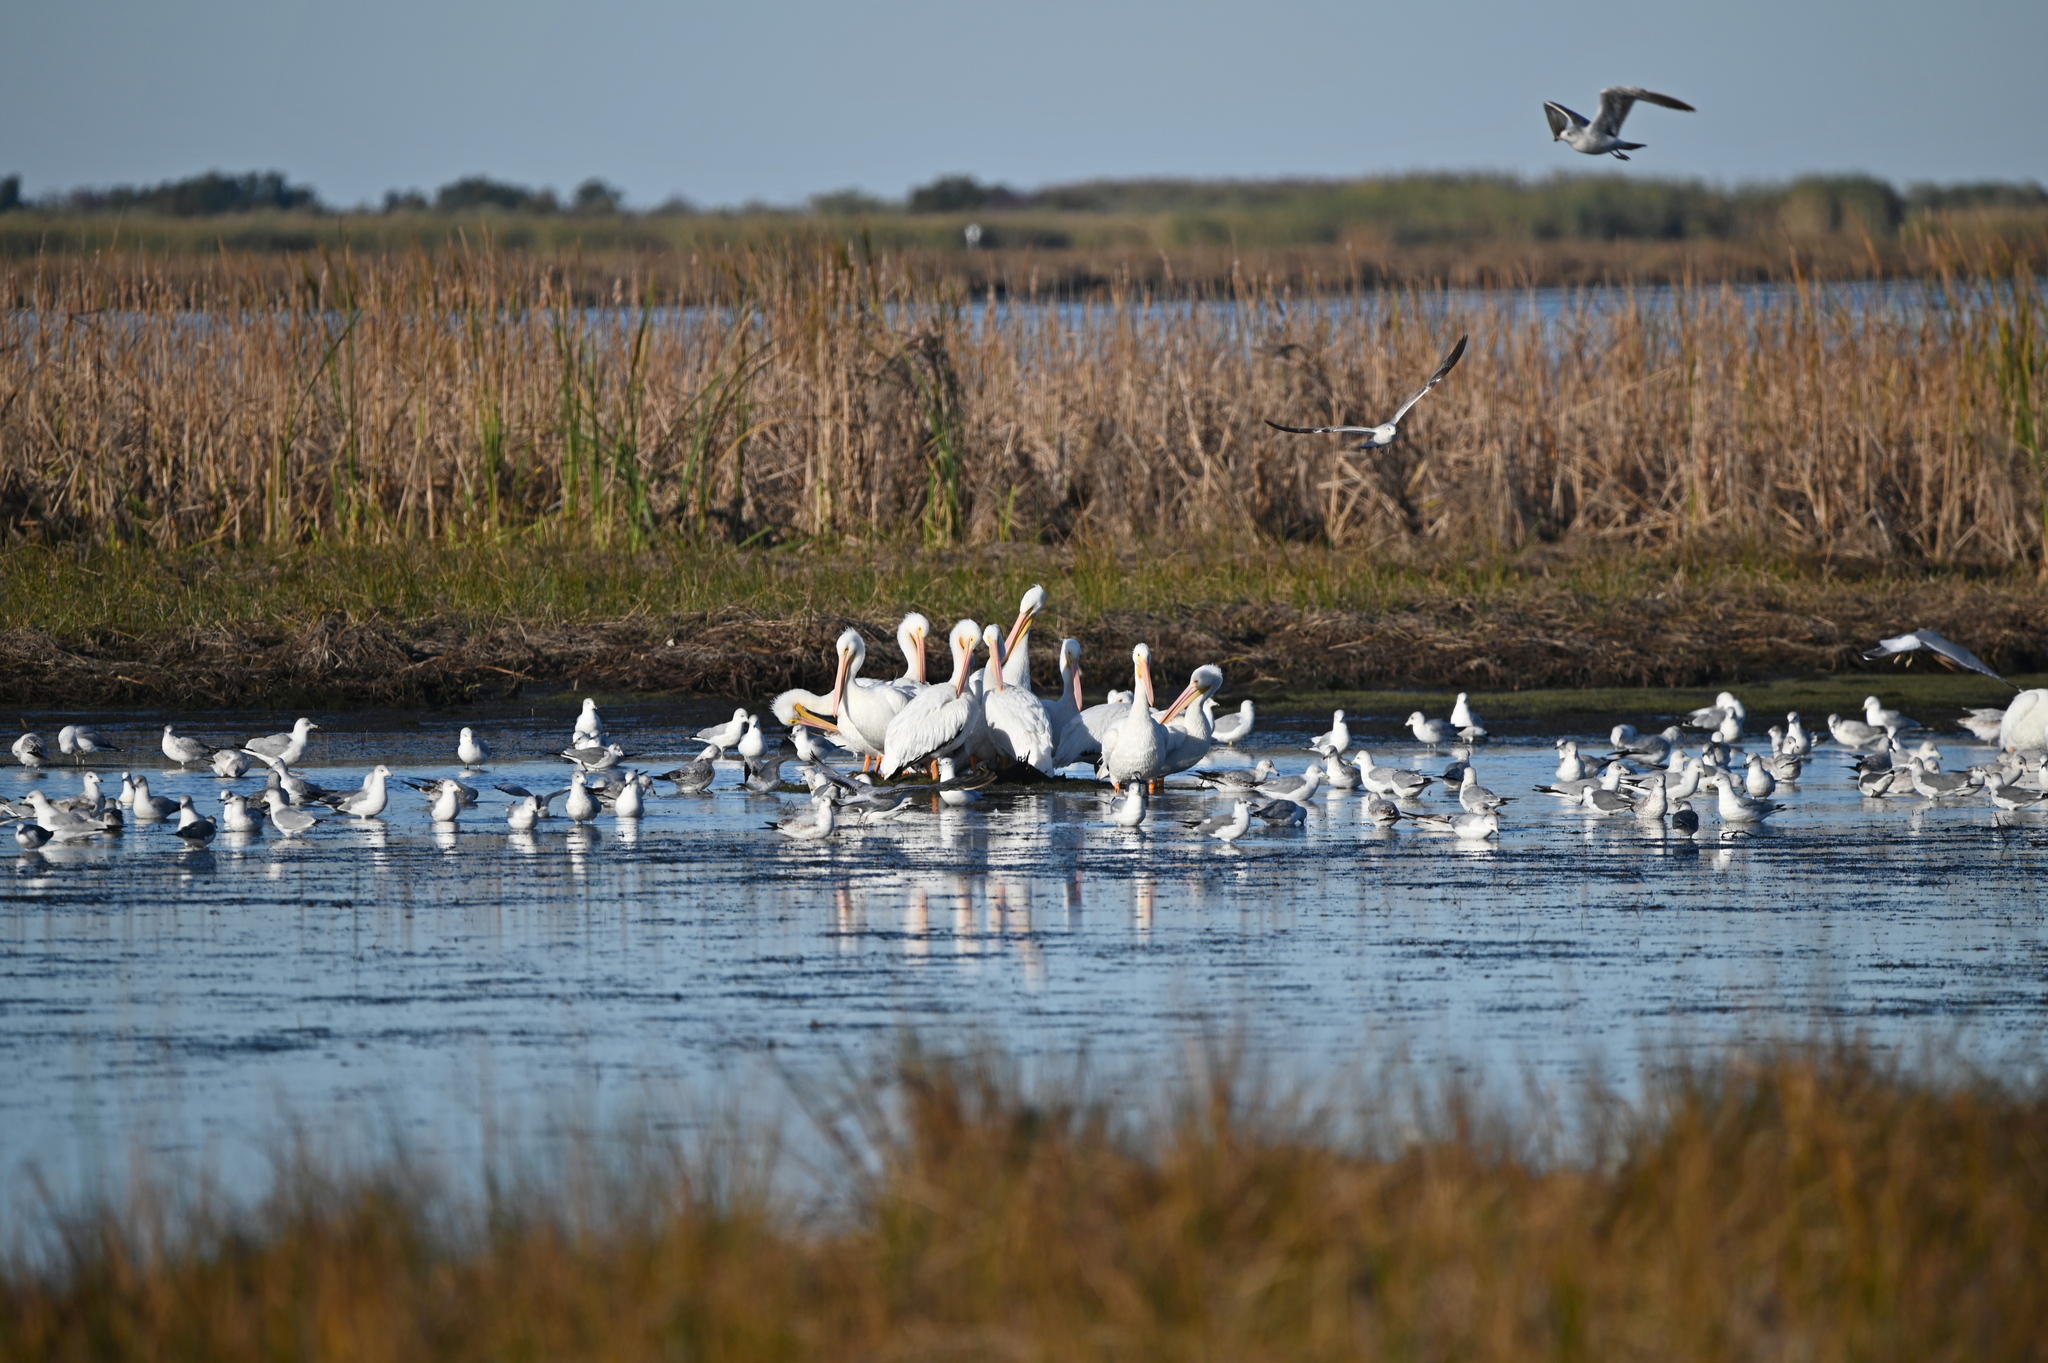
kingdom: Animalia
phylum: Chordata
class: Aves
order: Pelecaniformes
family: Pelecanidae
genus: Pelecanus
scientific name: Pelecanus erythrorhynchos
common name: American white pelican
